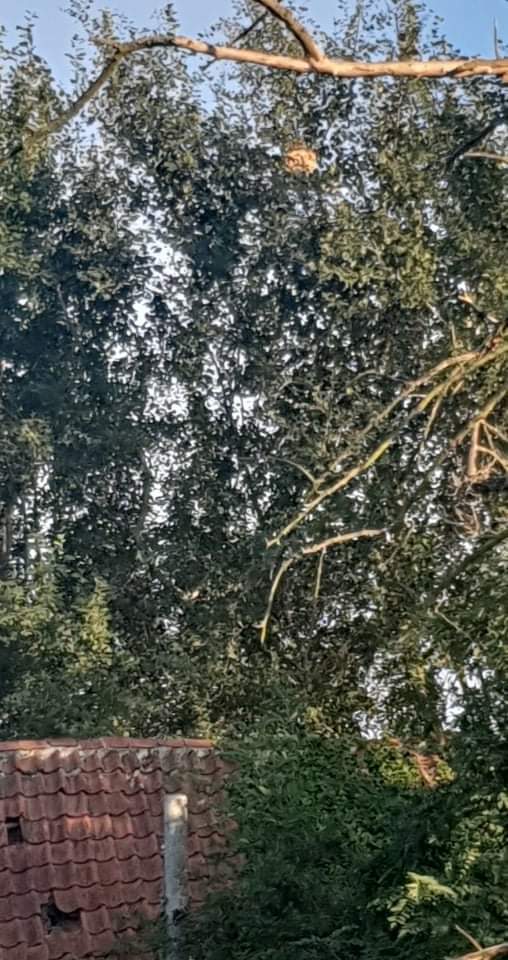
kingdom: Animalia
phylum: Arthropoda
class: Insecta
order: Hymenoptera
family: Vespidae
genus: Vespa
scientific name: Vespa velutina
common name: Asian hornet
